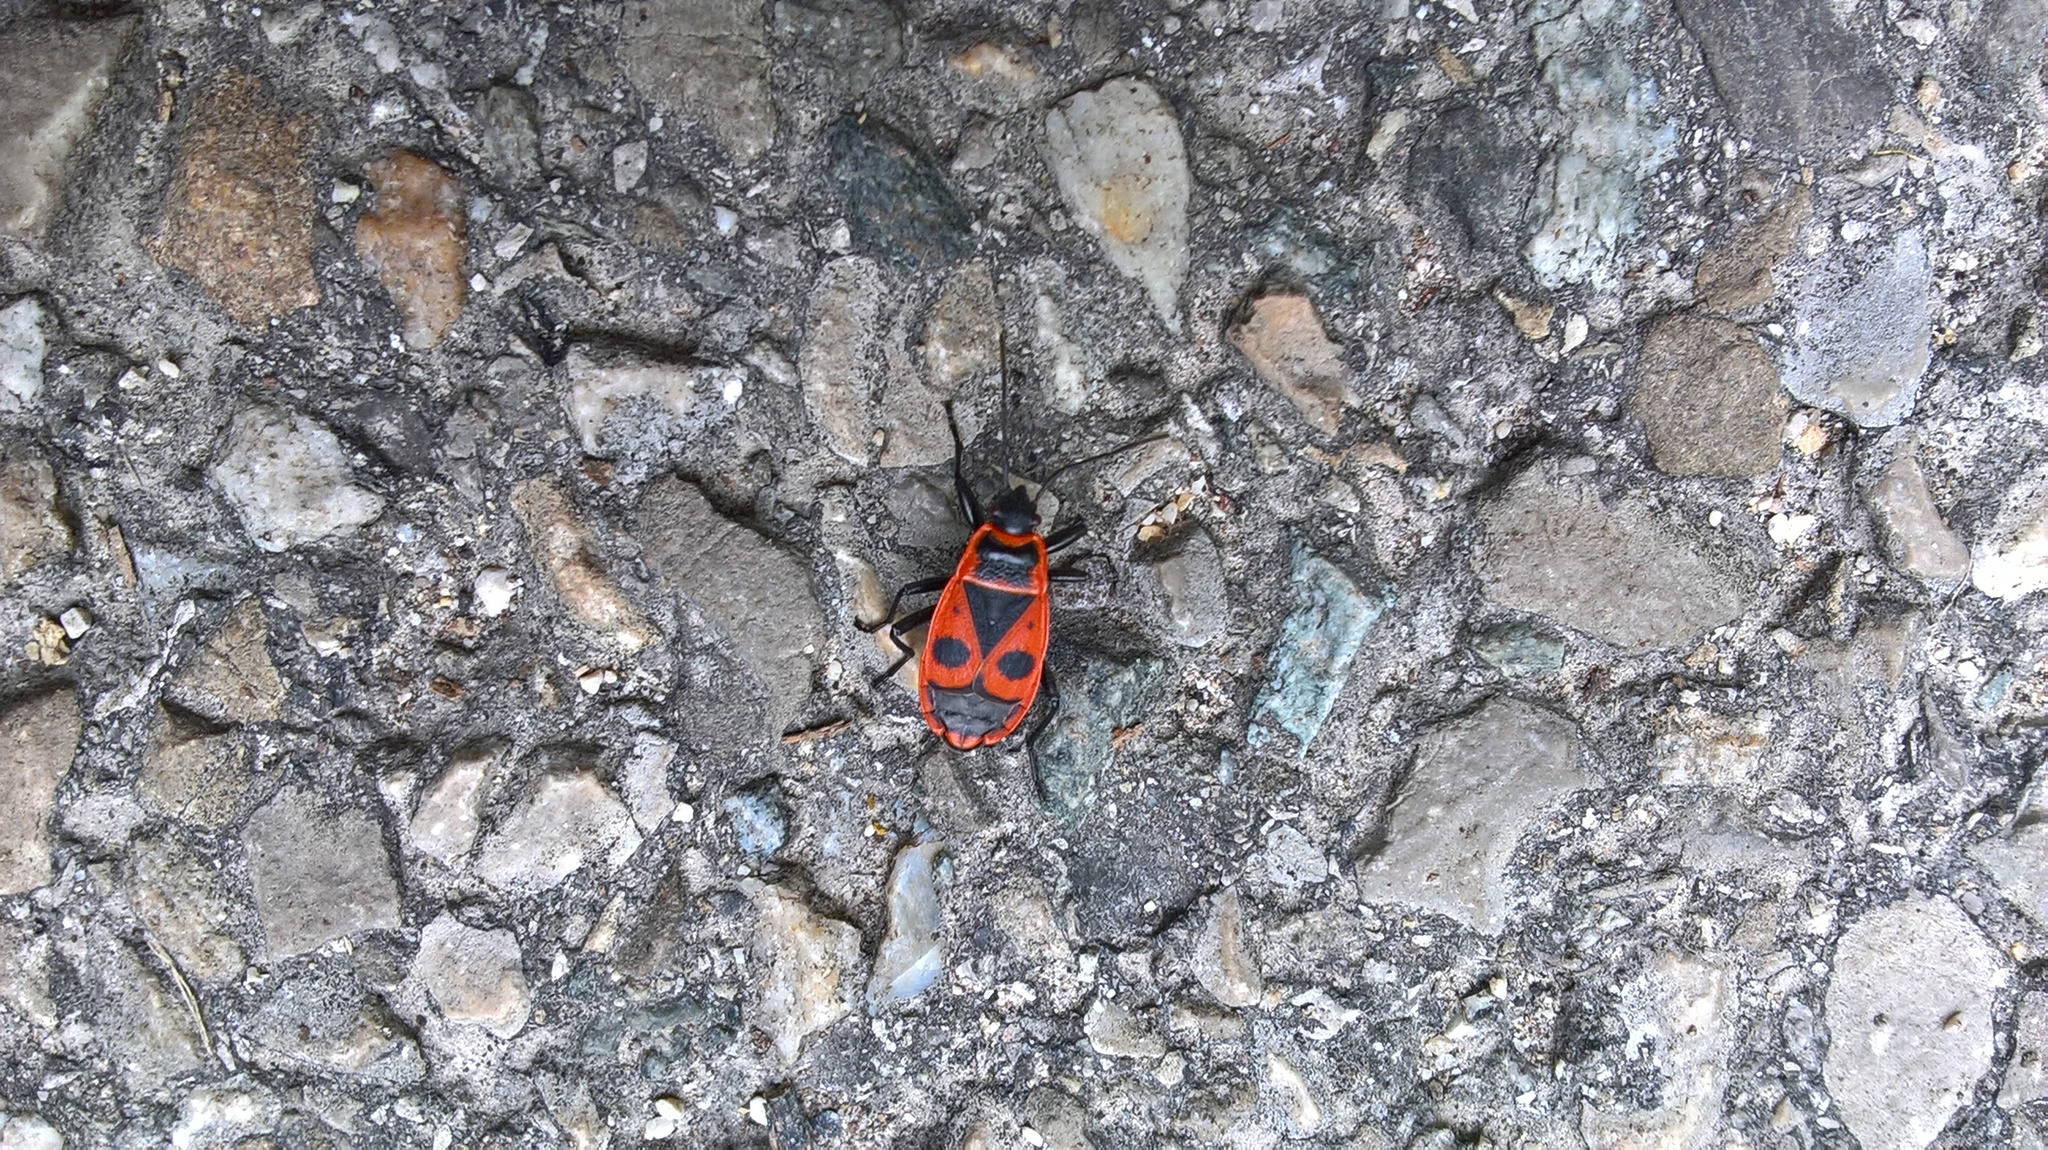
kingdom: Animalia
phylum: Arthropoda
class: Insecta
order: Hemiptera
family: Pyrrhocoridae
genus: Pyrrhocoris
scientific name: Pyrrhocoris apterus
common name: Firebug
